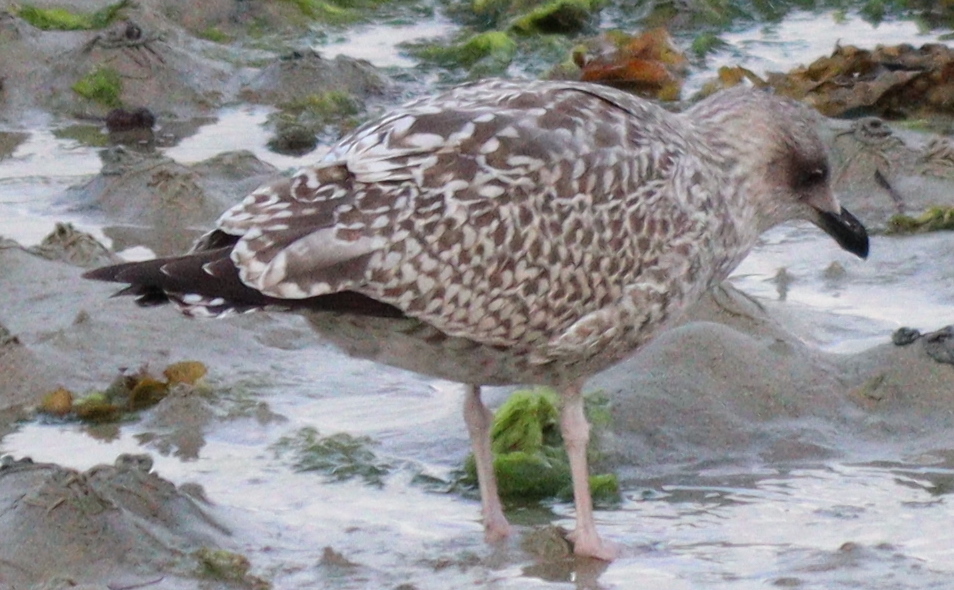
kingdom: Animalia
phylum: Chordata
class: Aves
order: Charadriiformes
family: Laridae
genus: Larus
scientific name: Larus argentatus
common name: Herring gull
